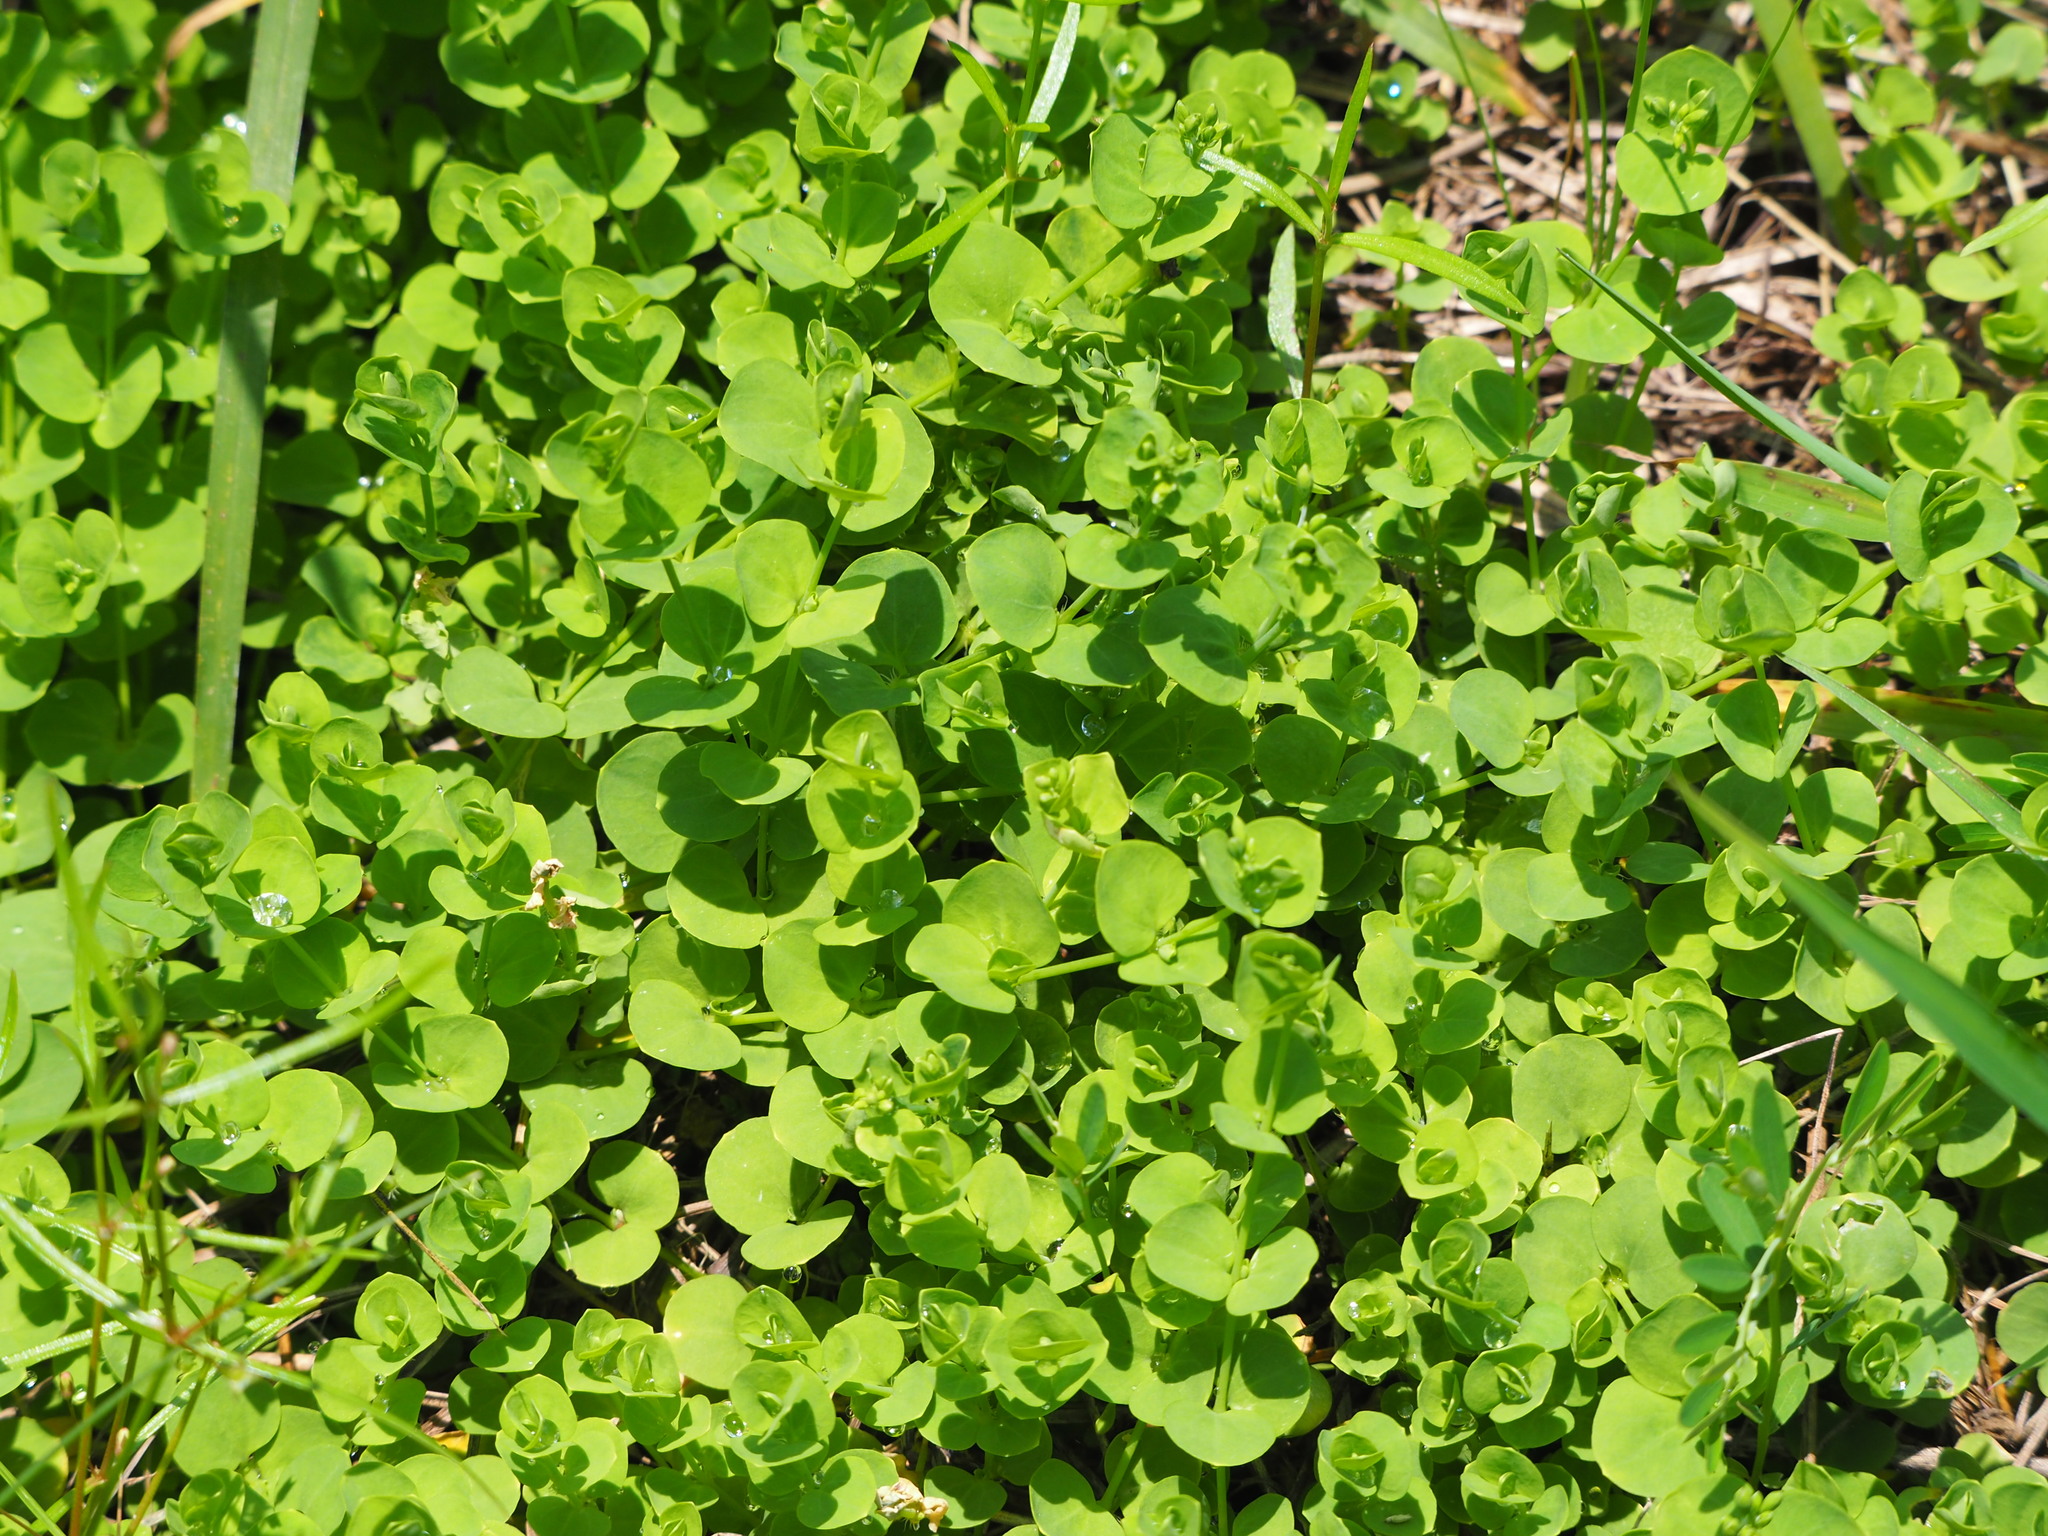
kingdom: Plantae
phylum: Tracheophyta
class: Magnoliopsida
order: Caryophyllales
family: Caryophyllaceae
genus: Drymaria
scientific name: Drymaria cordata
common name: Whitesnow
